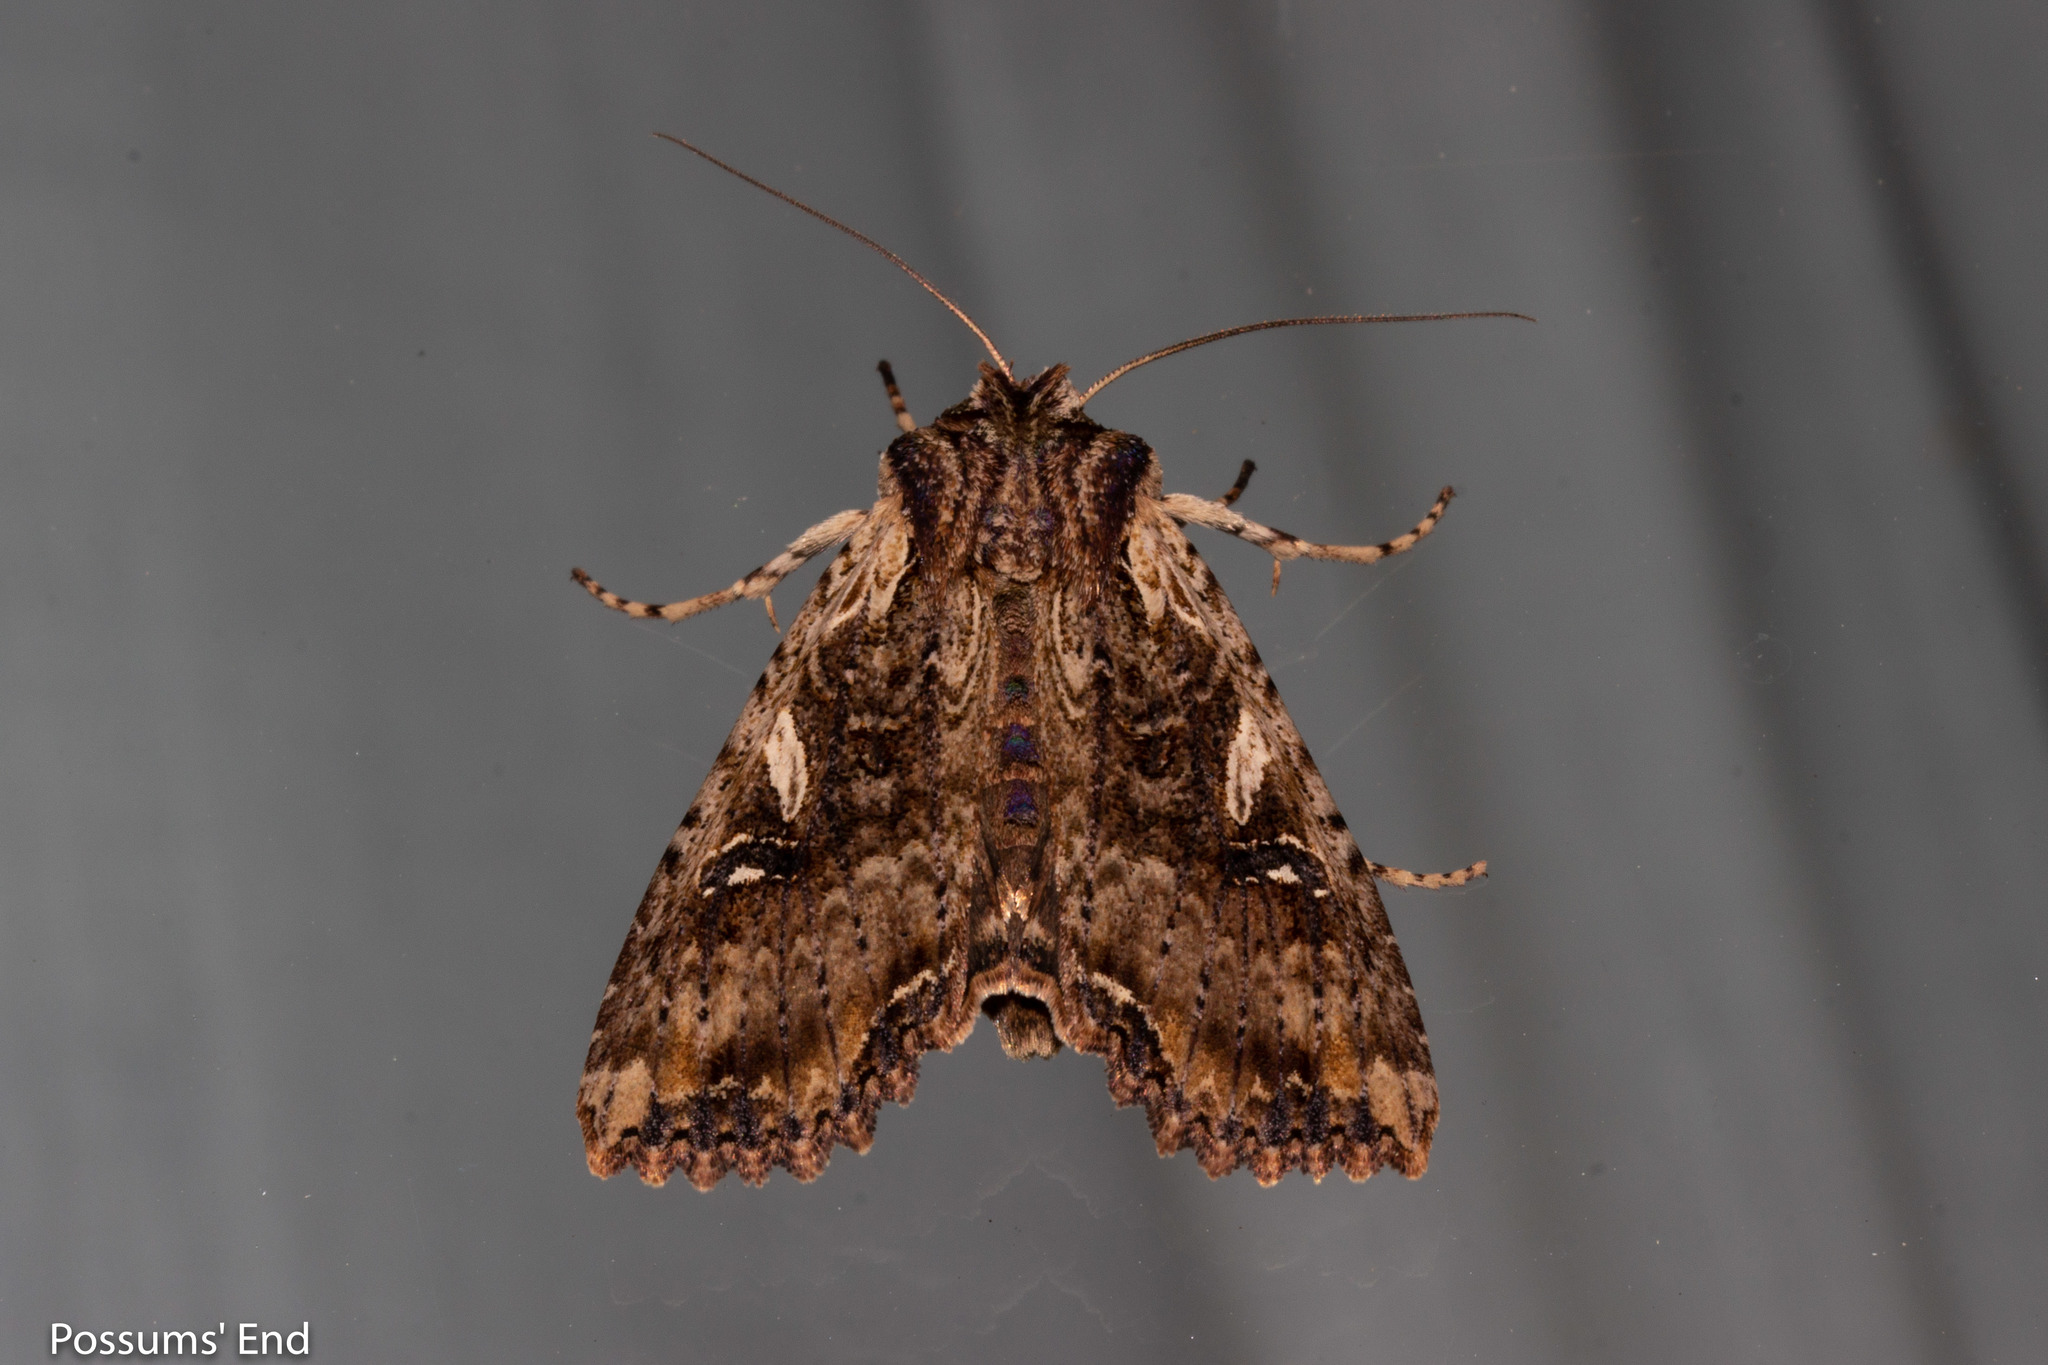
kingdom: Animalia
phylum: Arthropoda
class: Insecta
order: Lepidoptera
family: Noctuidae
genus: Meterana
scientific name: Meterana stipata
